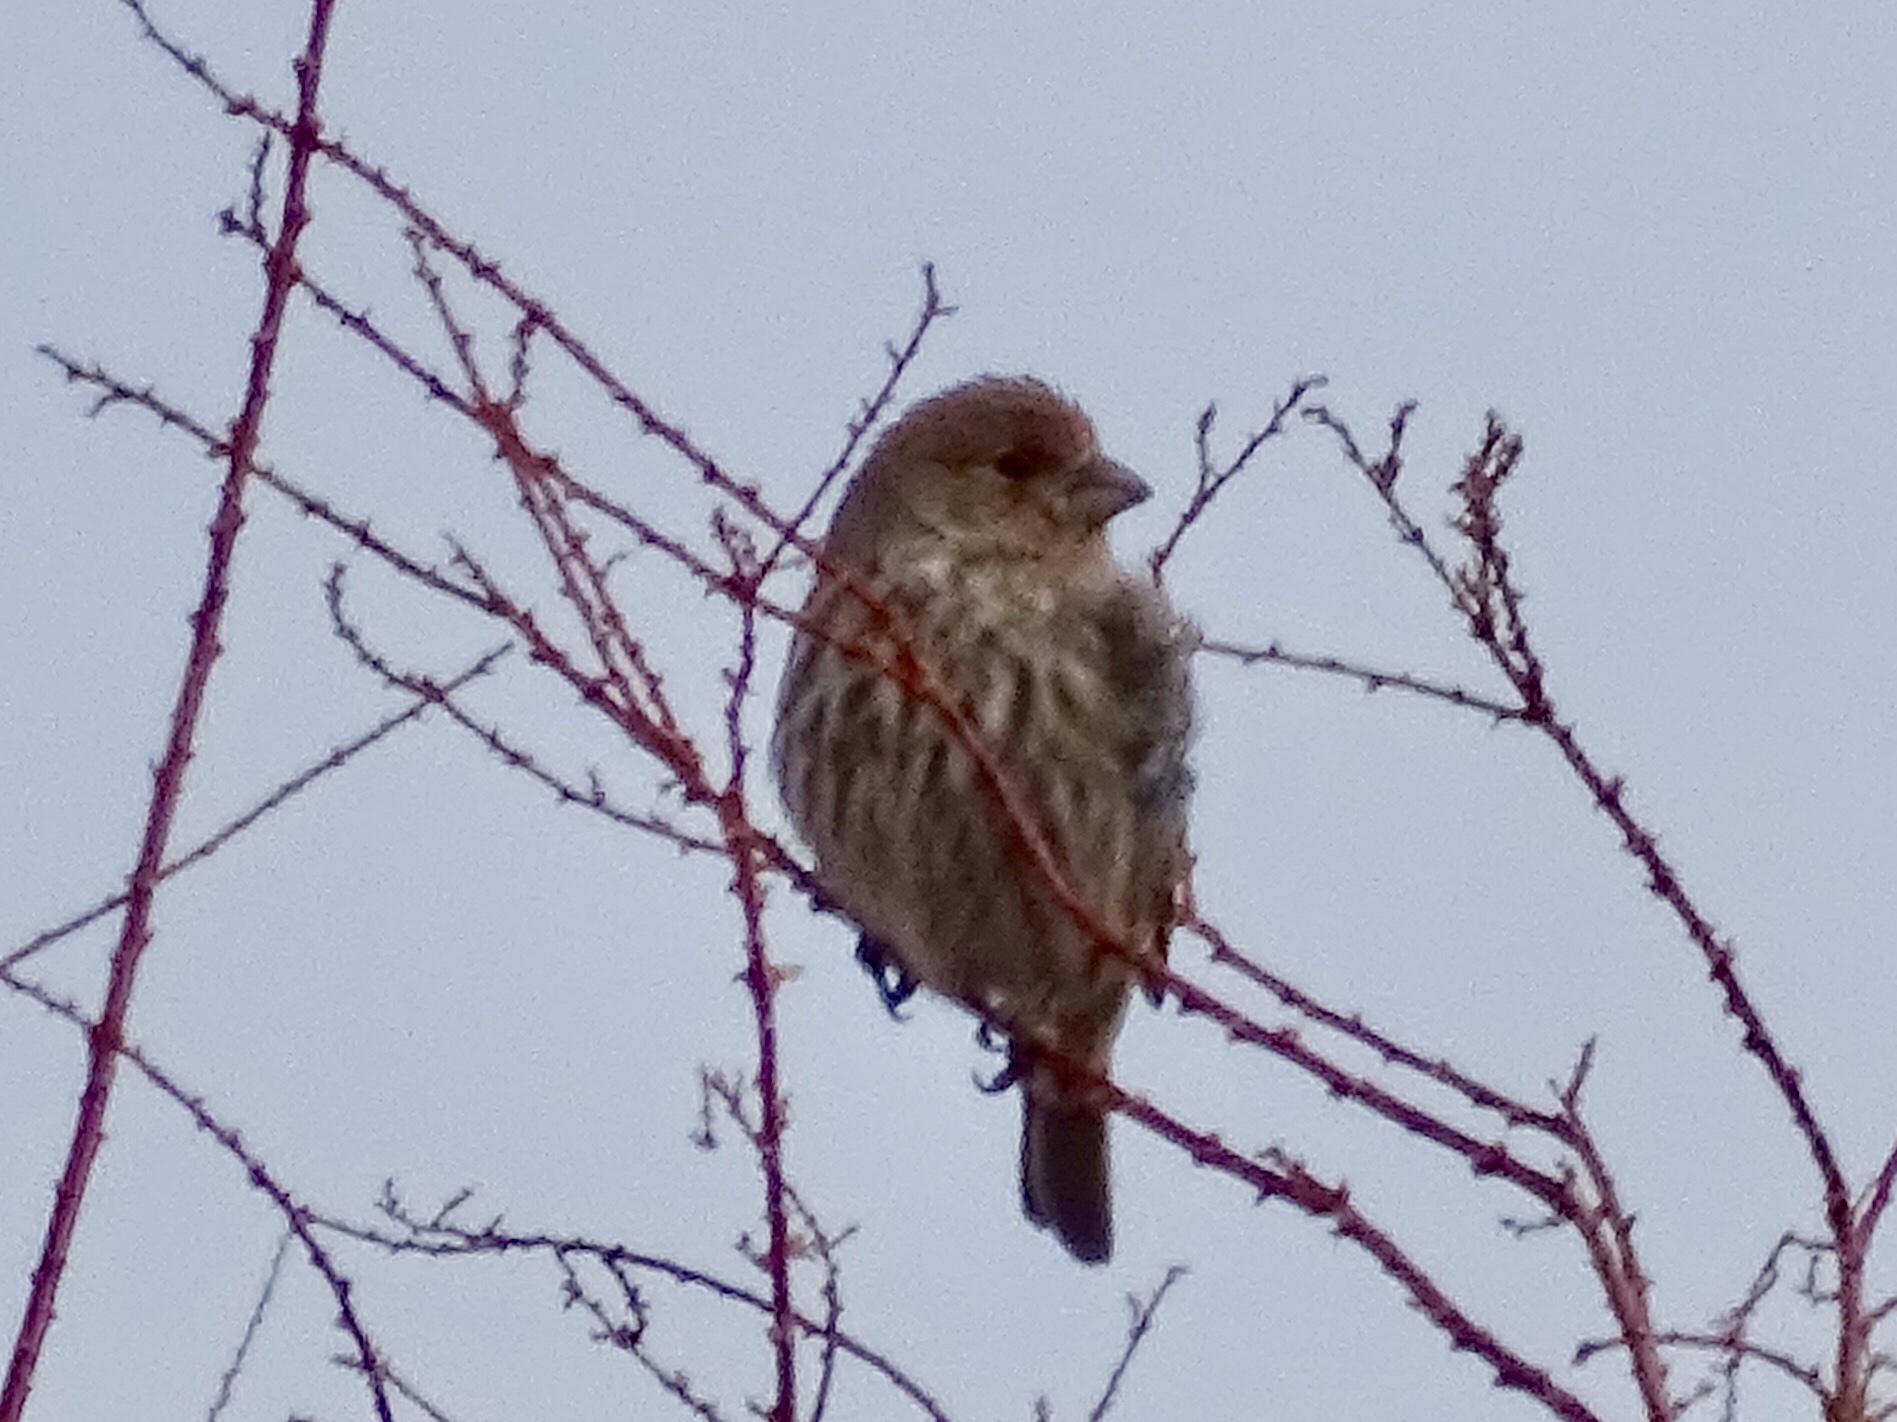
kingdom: Animalia
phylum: Chordata
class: Aves
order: Passeriformes
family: Fringillidae
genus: Haemorhous
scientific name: Haemorhous mexicanus
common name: House finch
